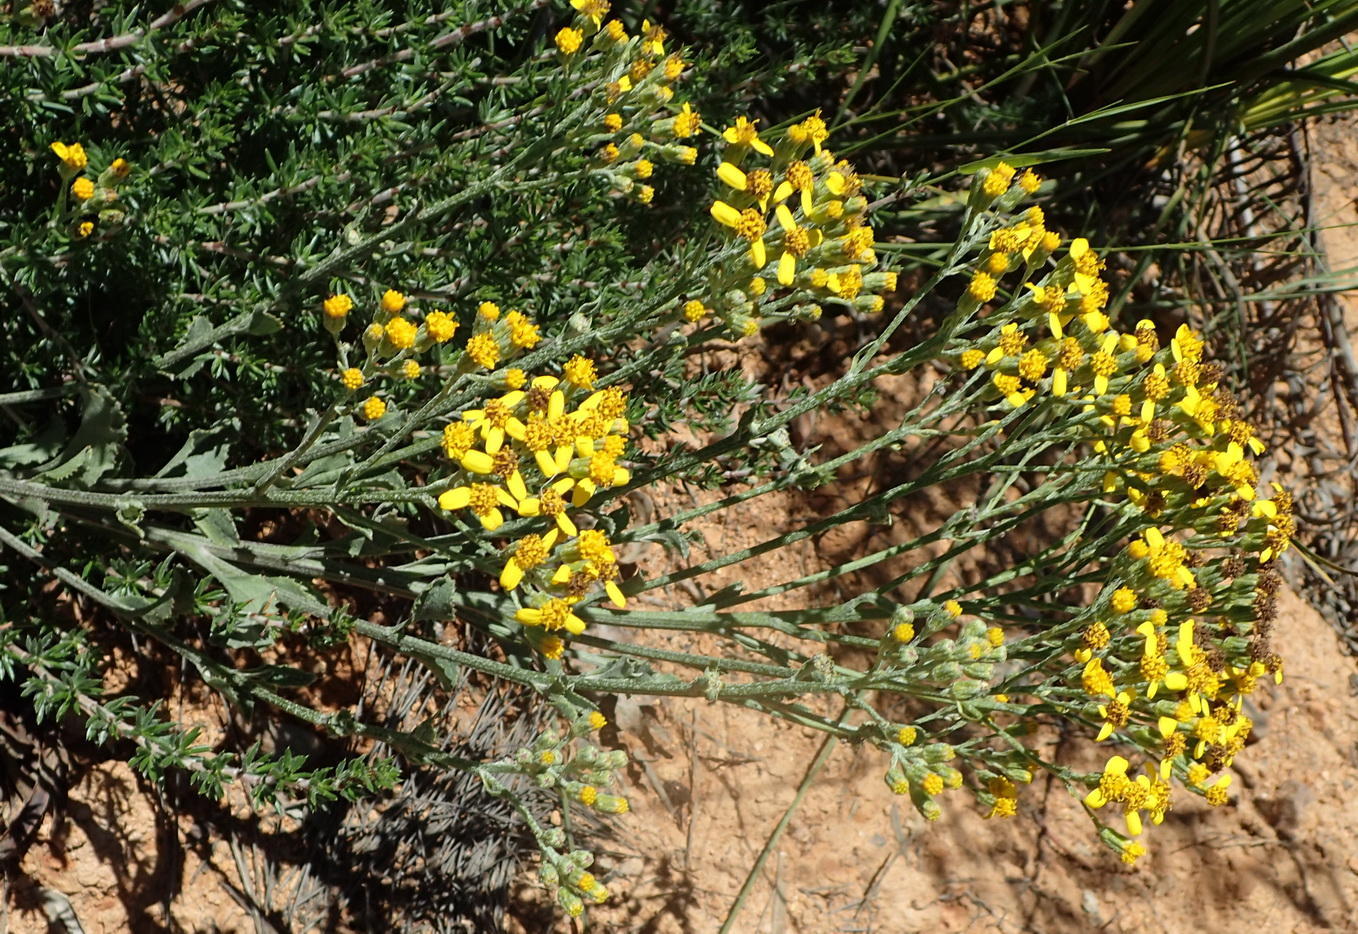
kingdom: Plantae
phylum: Tracheophyta
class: Magnoliopsida
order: Asterales
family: Asteraceae
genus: Senecio
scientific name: Senecio crenatus
